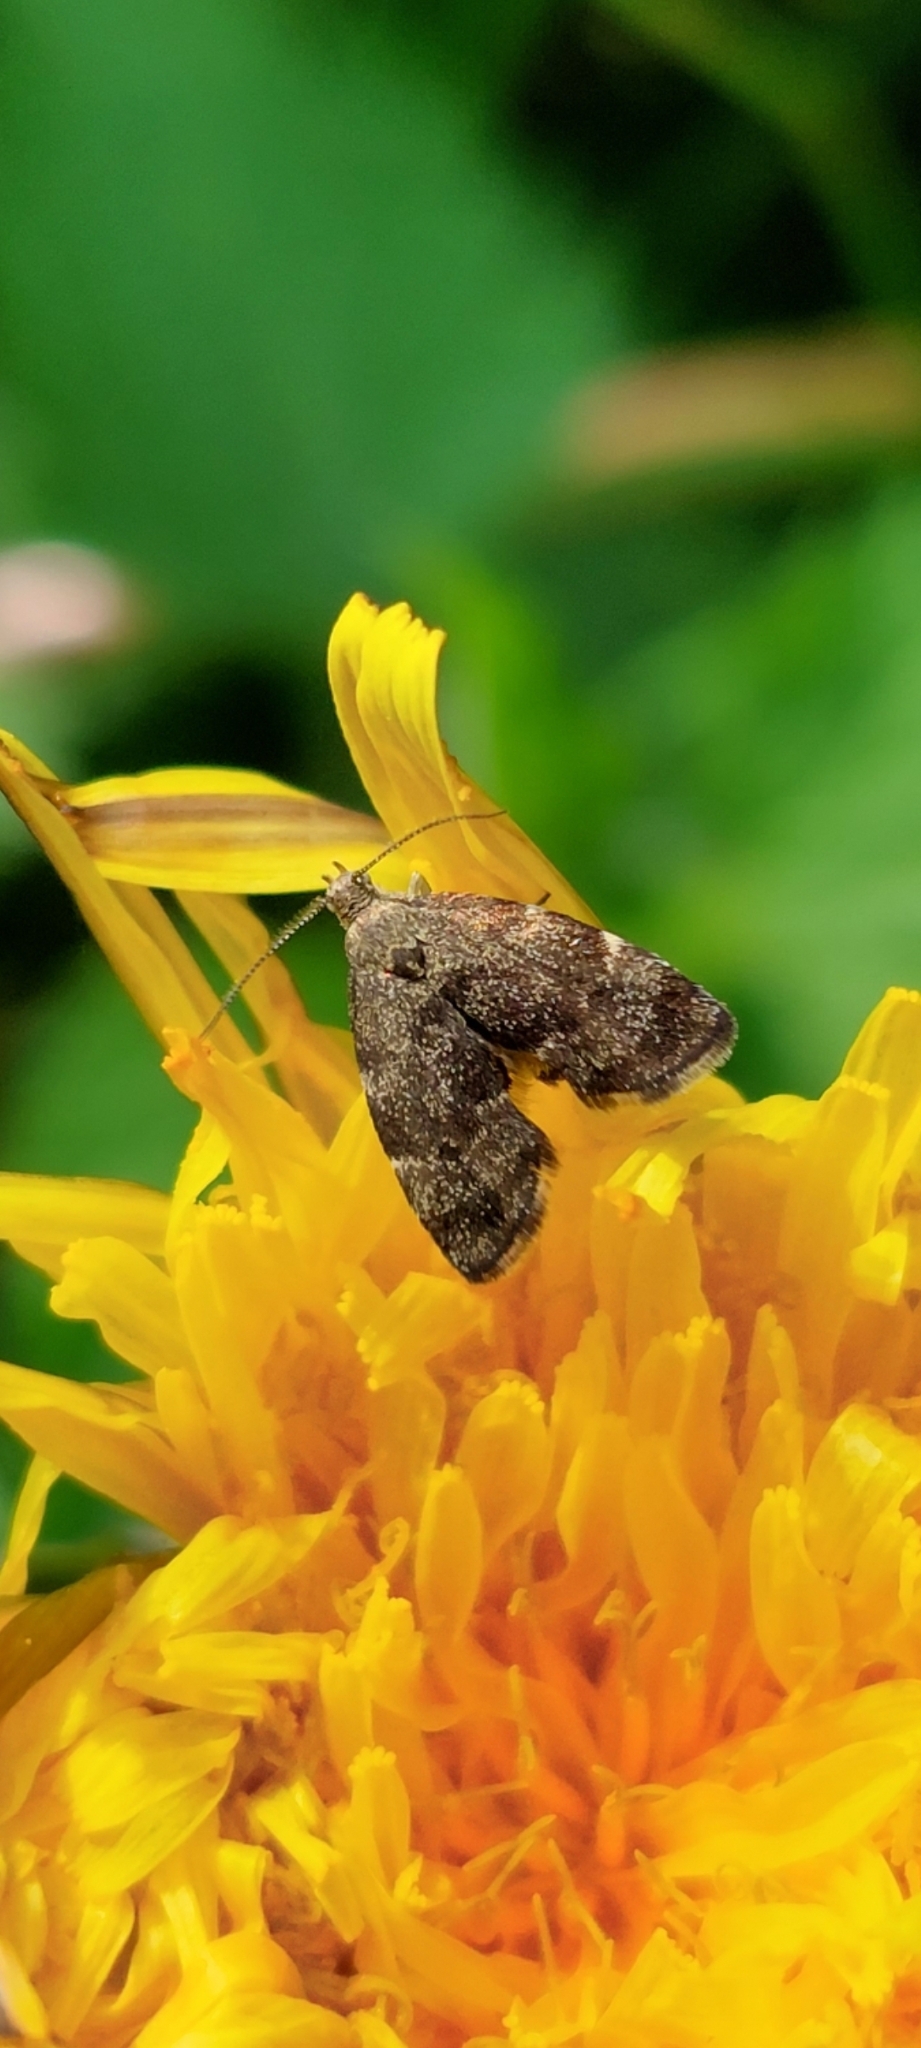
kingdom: Animalia
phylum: Arthropoda
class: Insecta
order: Lepidoptera
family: Choreutidae
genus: Anthophila
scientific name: Anthophila fabriciana
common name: Nettle-tap
